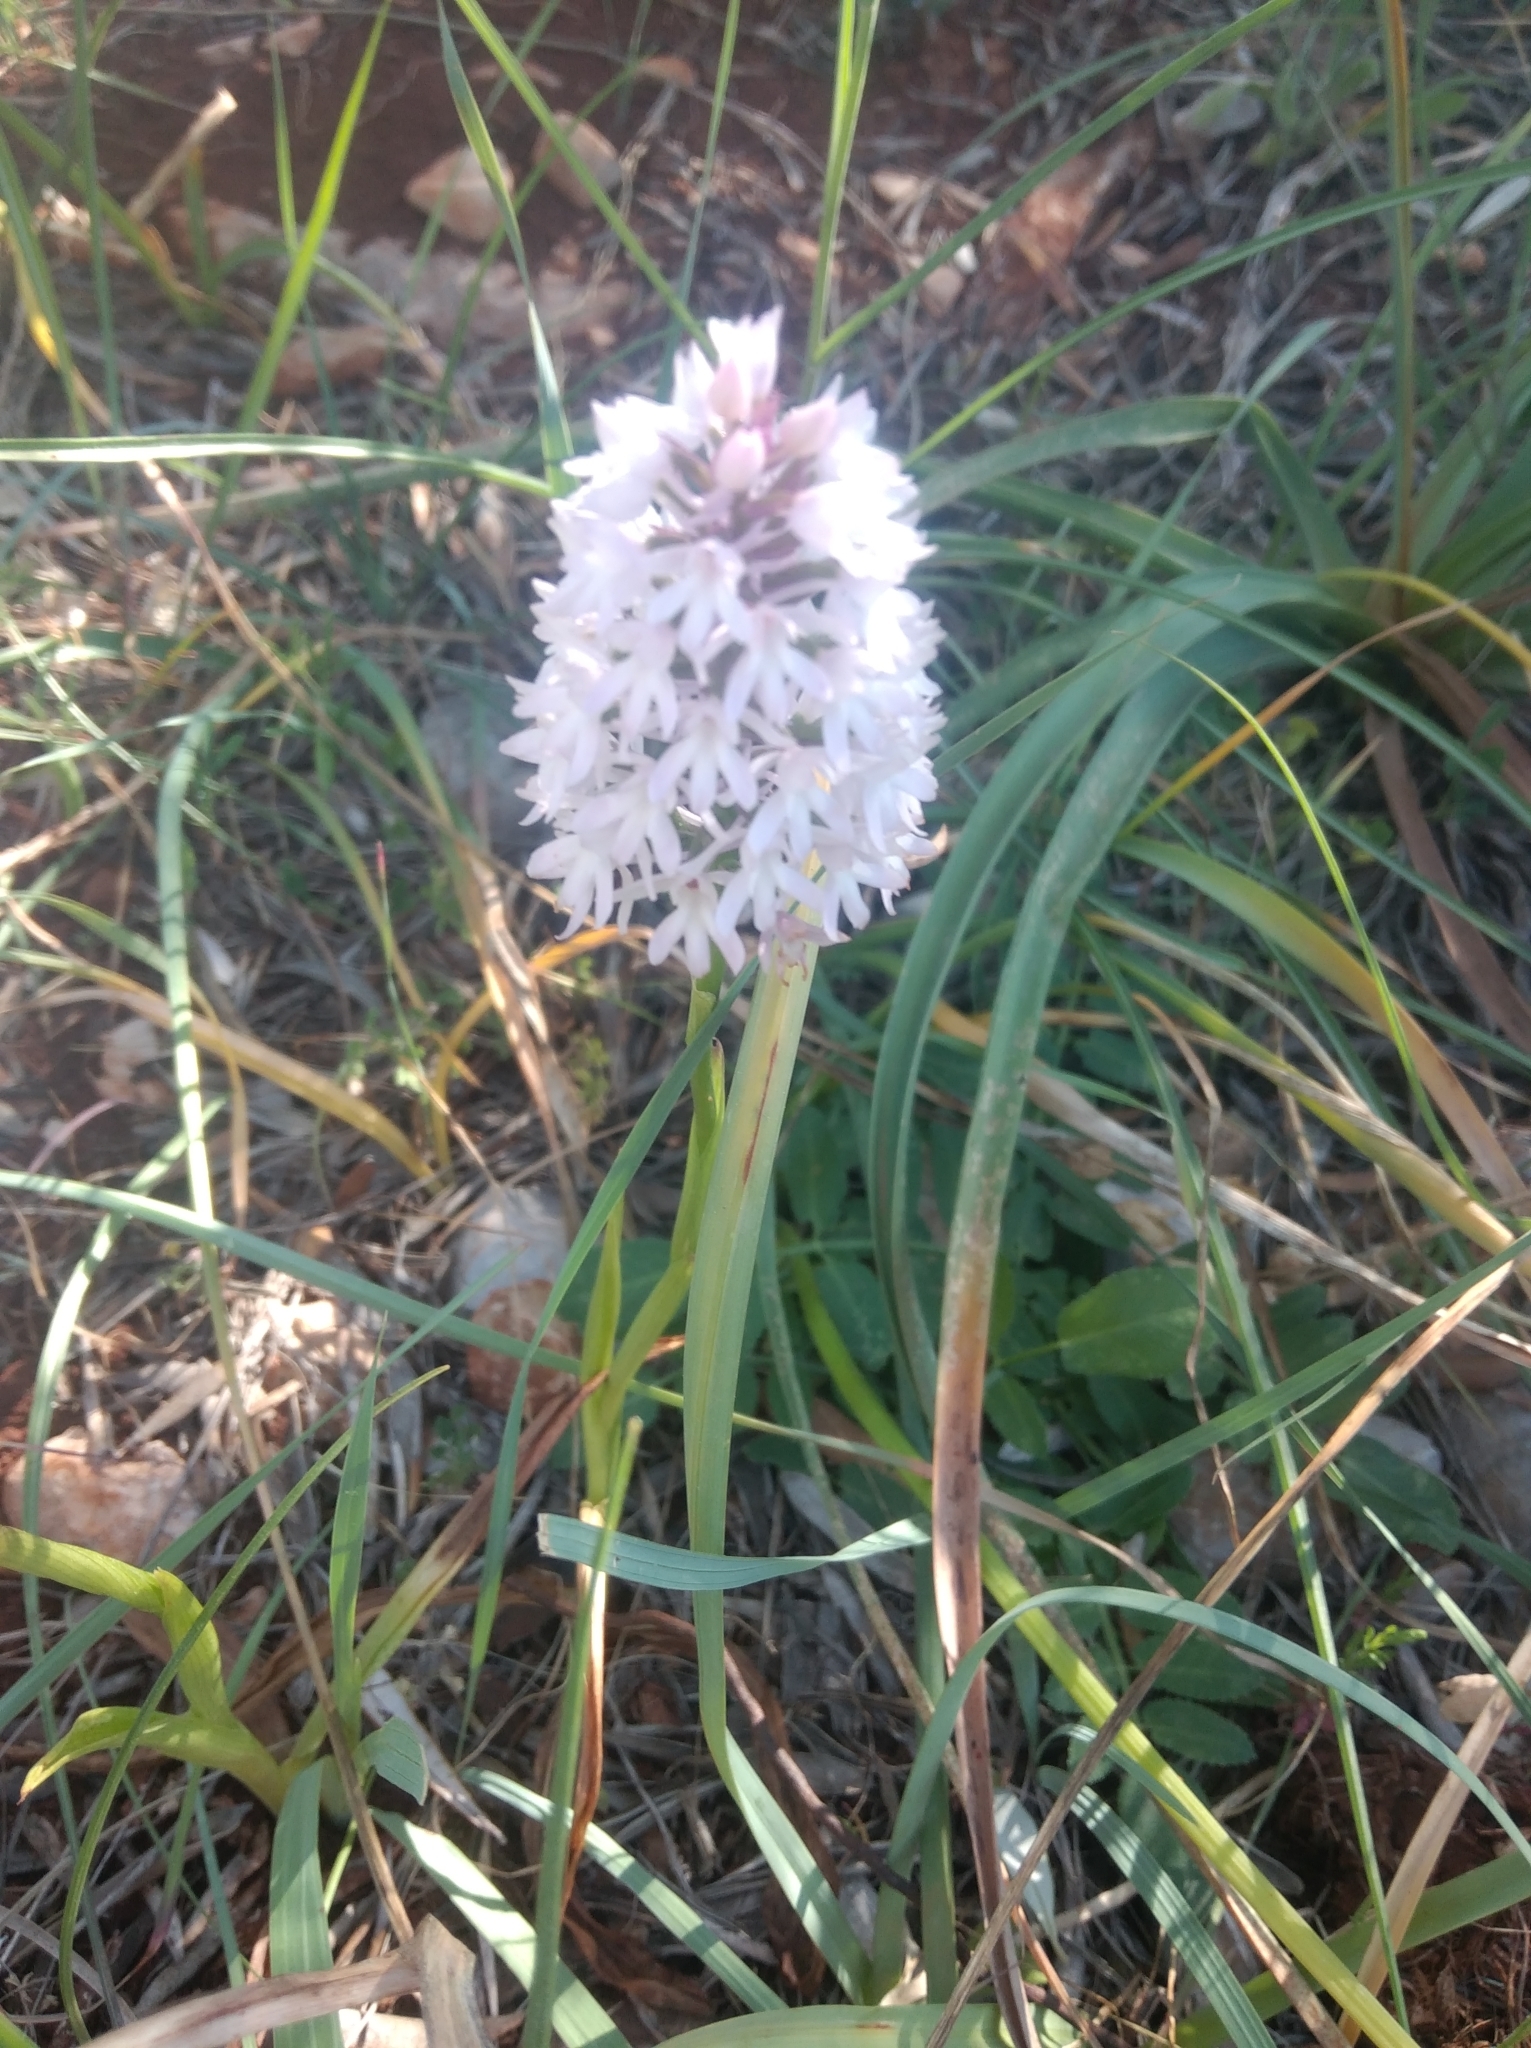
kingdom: Plantae
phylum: Tracheophyta
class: Liliopsida
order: Asparagales
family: Orchidaceae
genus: Anacamptis
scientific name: Anacamptis pyramidalis
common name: Pyramidal orchid
